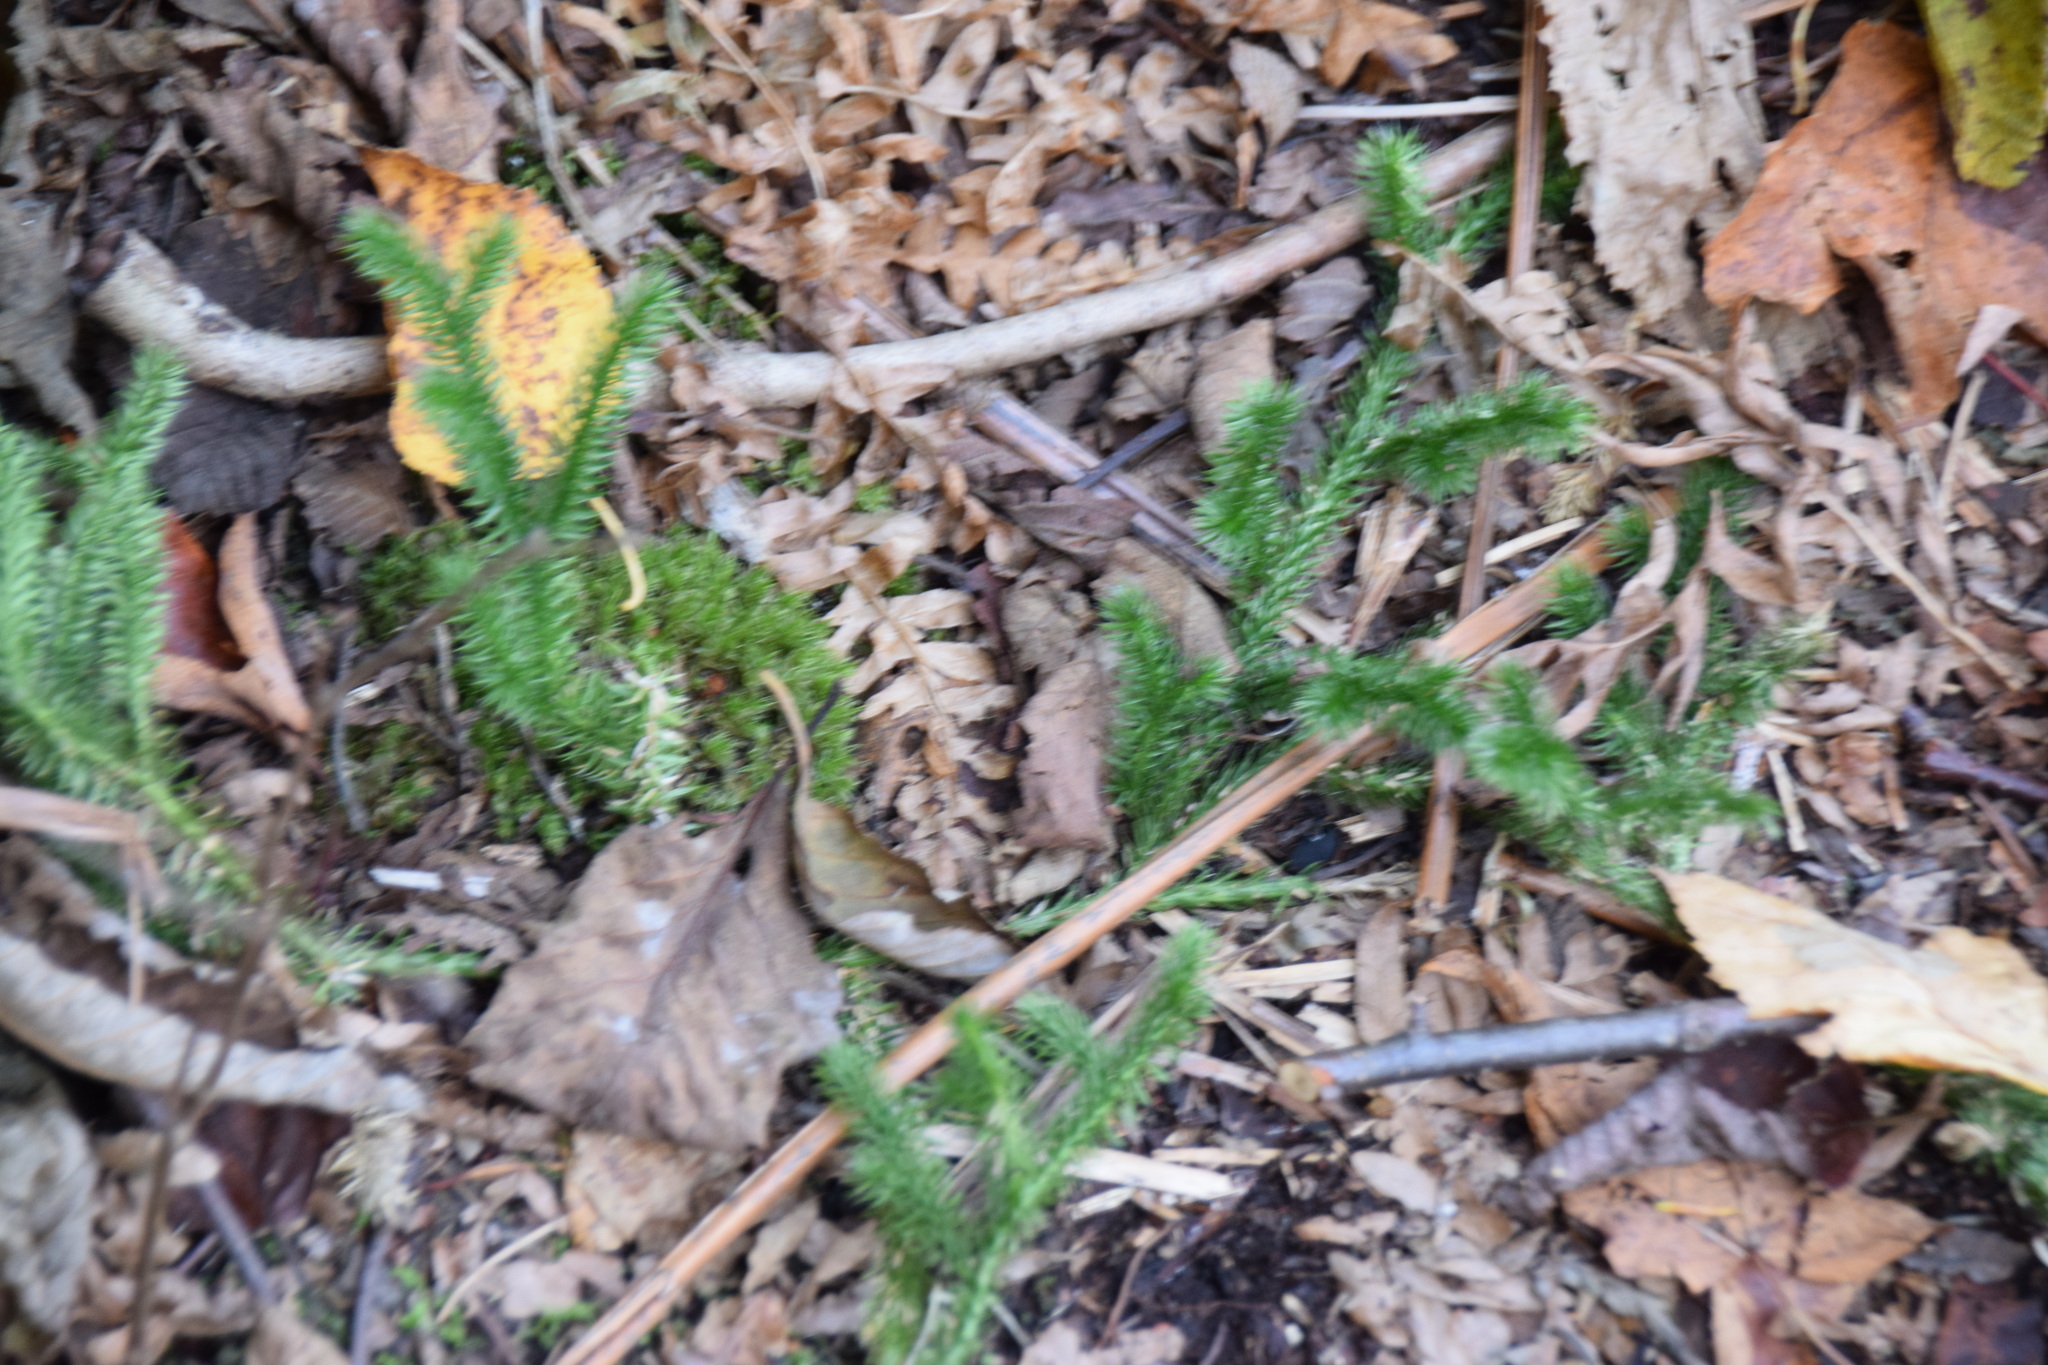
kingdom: Plantae
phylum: Tracheophyta
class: Lycopodiopsida
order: Lycopodiales
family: Lycopodiaceae
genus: Lycopodium
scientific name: Lycopodium clavatum
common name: Stag's-horn clubmoss
